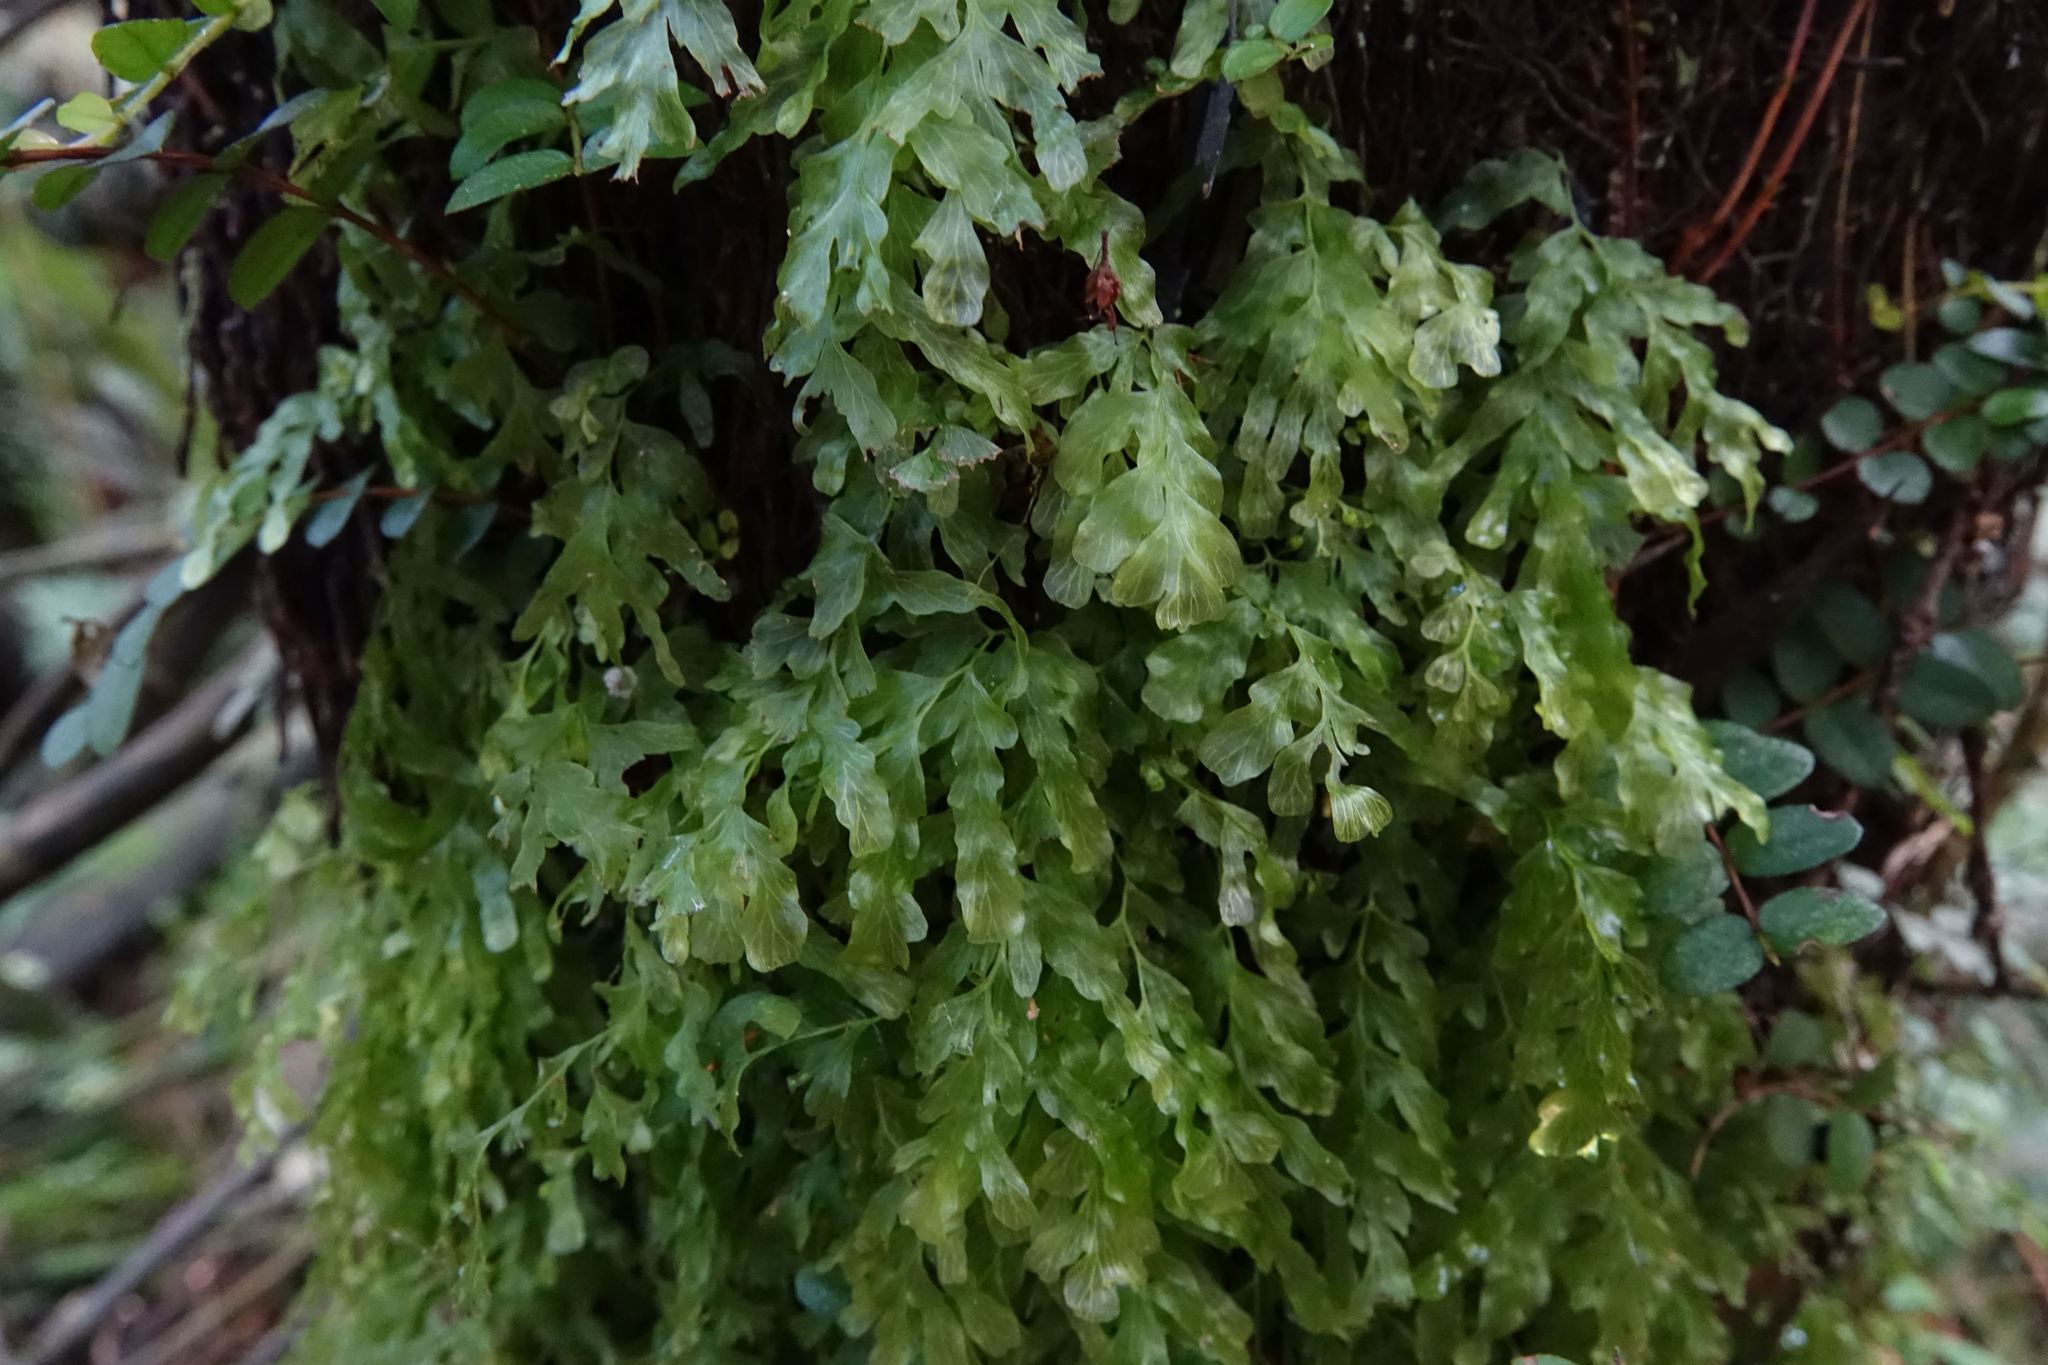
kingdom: Plantae
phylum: Tracheophyta
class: Polypodiopsida
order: Hymenophyllales
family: Hymenophyllaceae
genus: Polyphlebium
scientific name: Polyphlebium venosum
